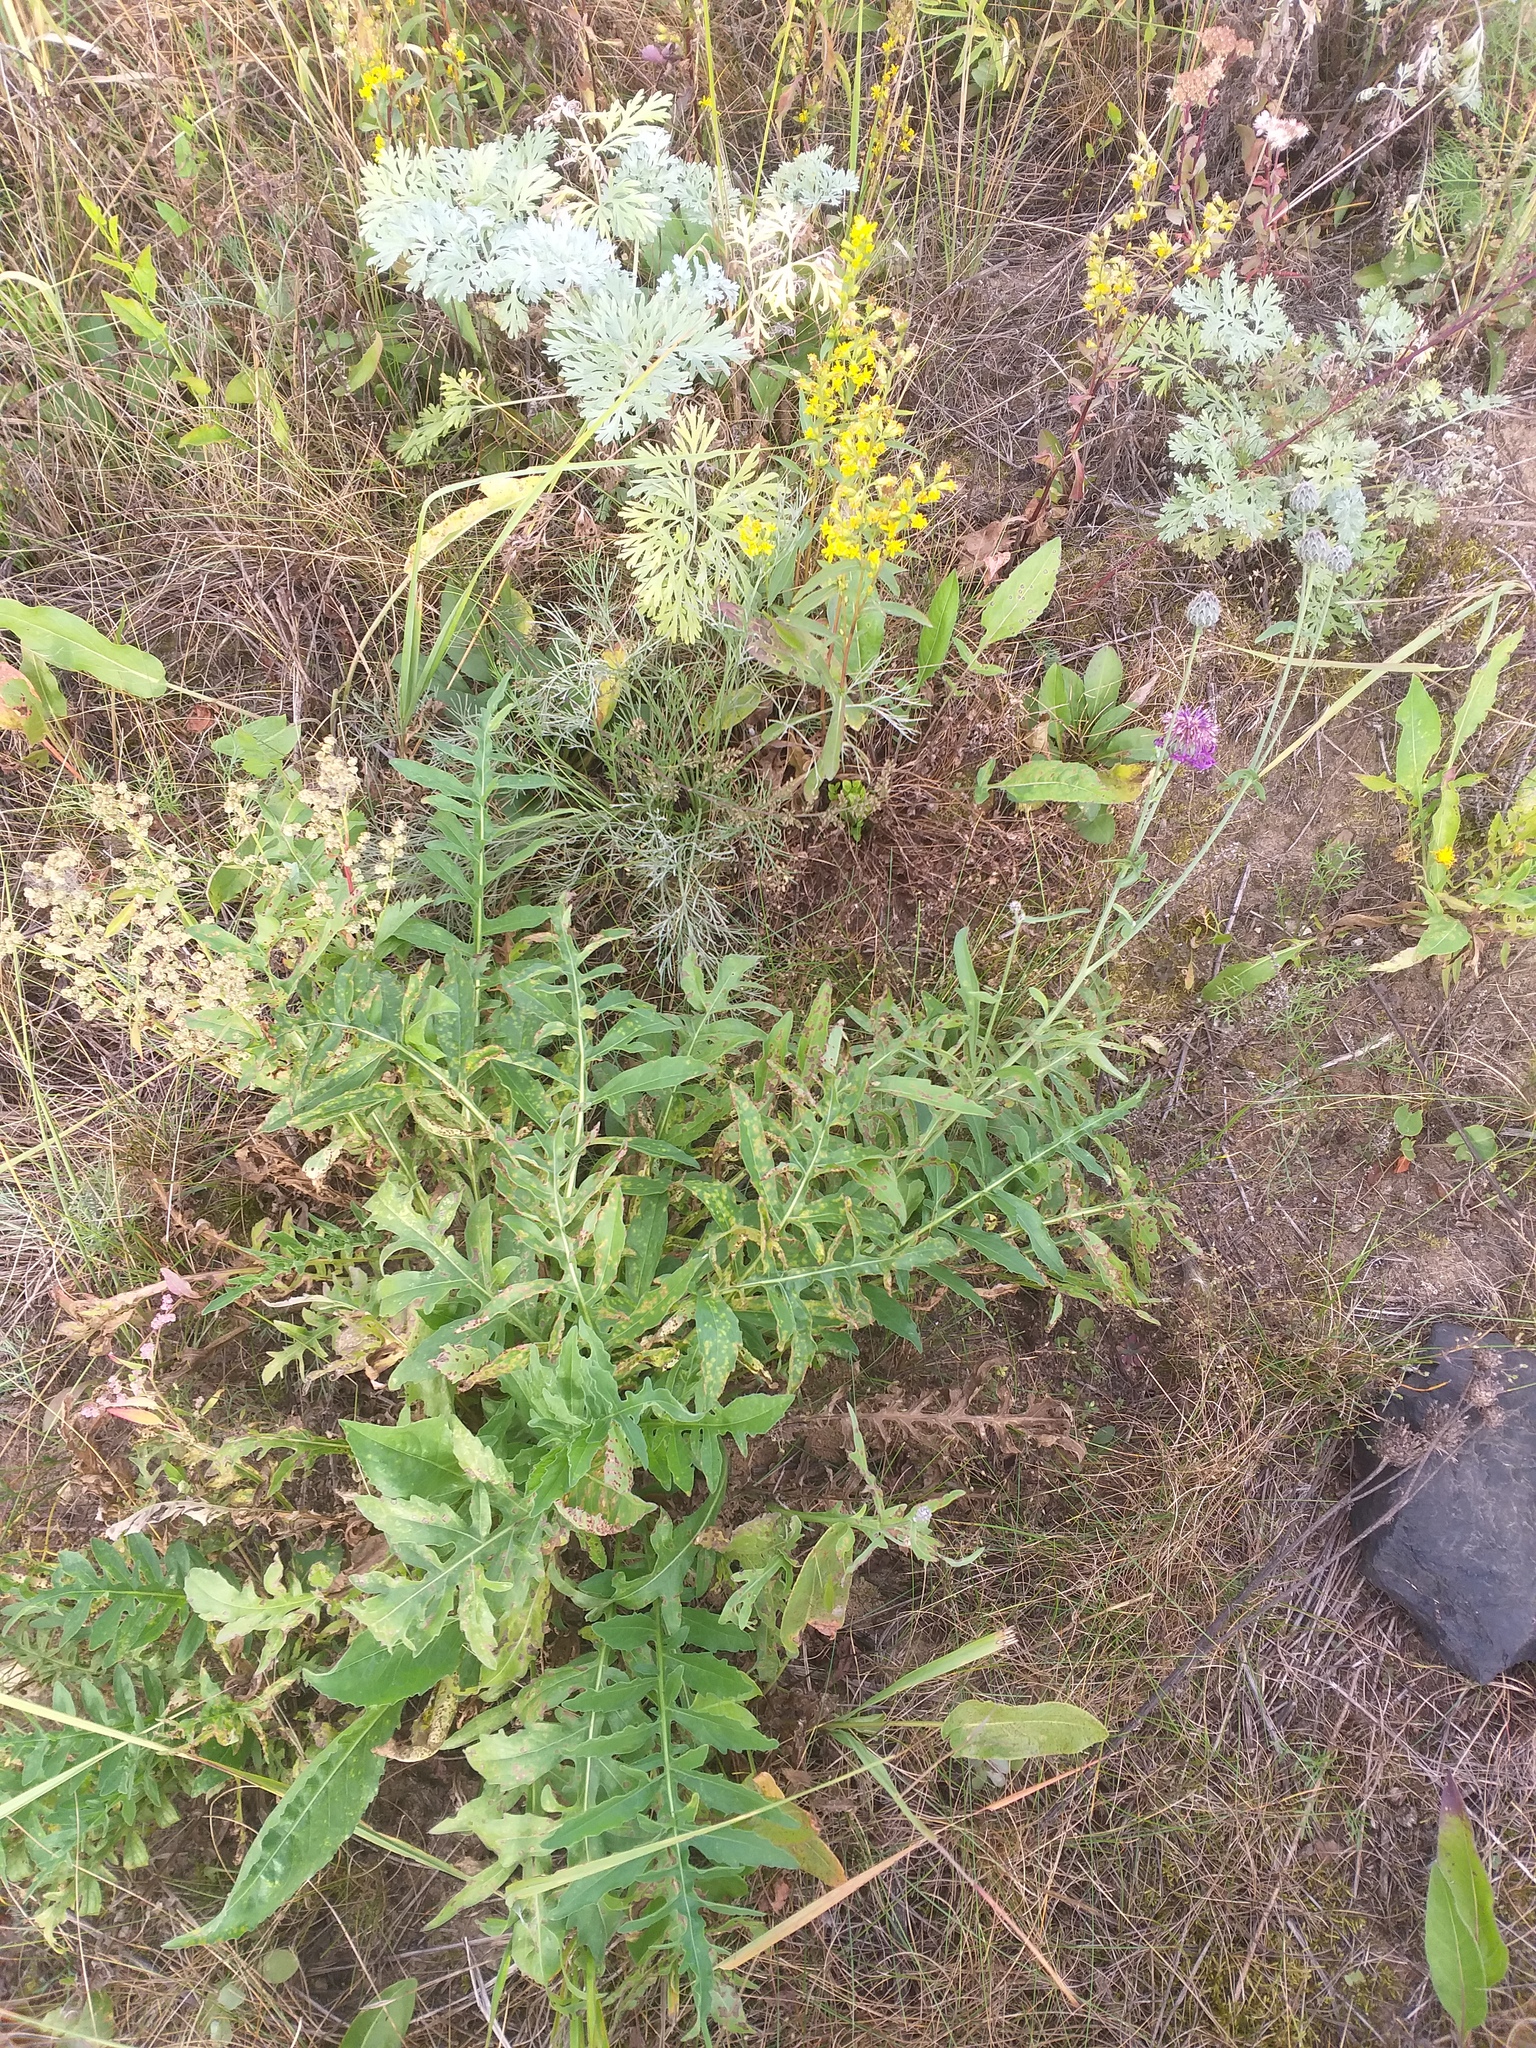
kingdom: Plantae
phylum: Tracheophyta
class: Magnoliopsida
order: Asterales
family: Asteraceae
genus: Centaurea
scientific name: Centaurea scabiosa
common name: Greater knapweed
